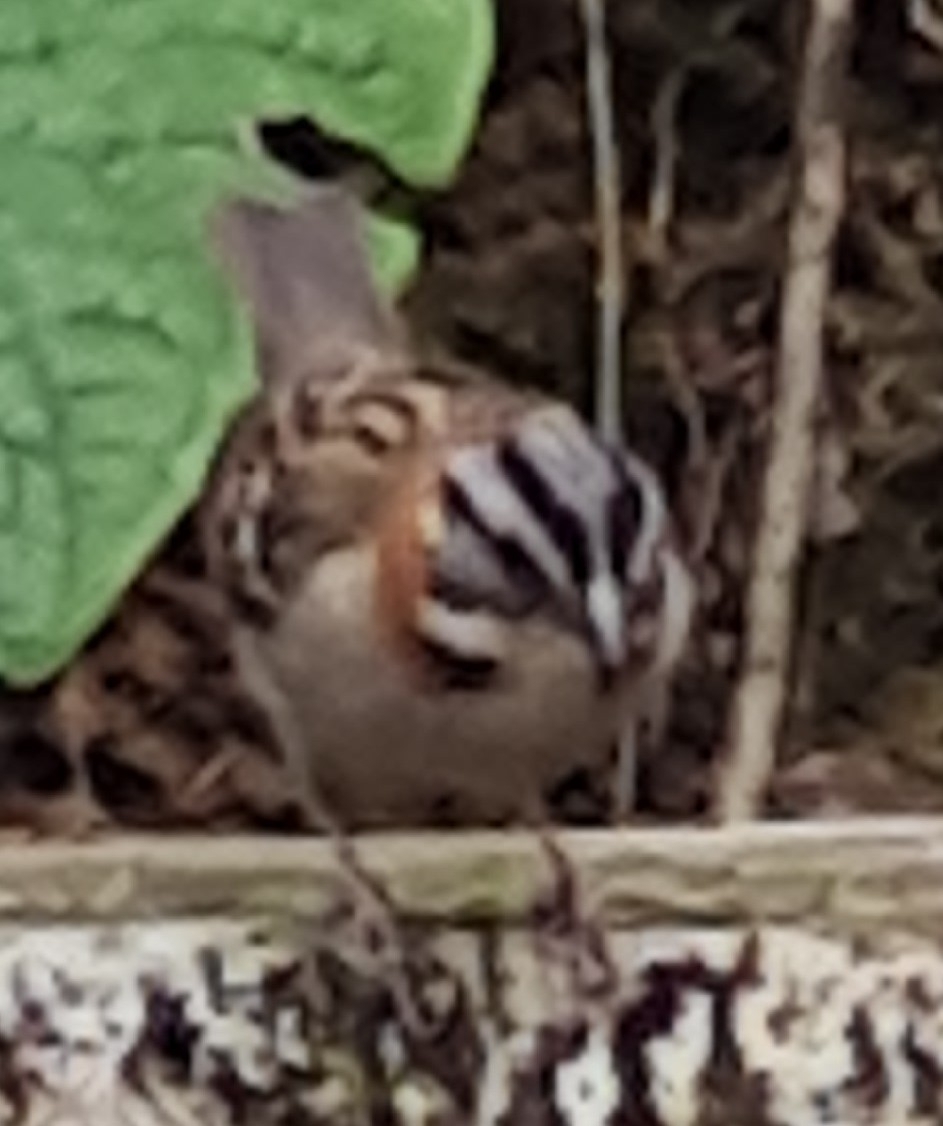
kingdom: Animalia
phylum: Chordata
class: Aves
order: Passeriformes
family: Passerellidae
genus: Zonotrichia
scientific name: Zonotrichia capensis
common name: Rufous-collared sparrow
